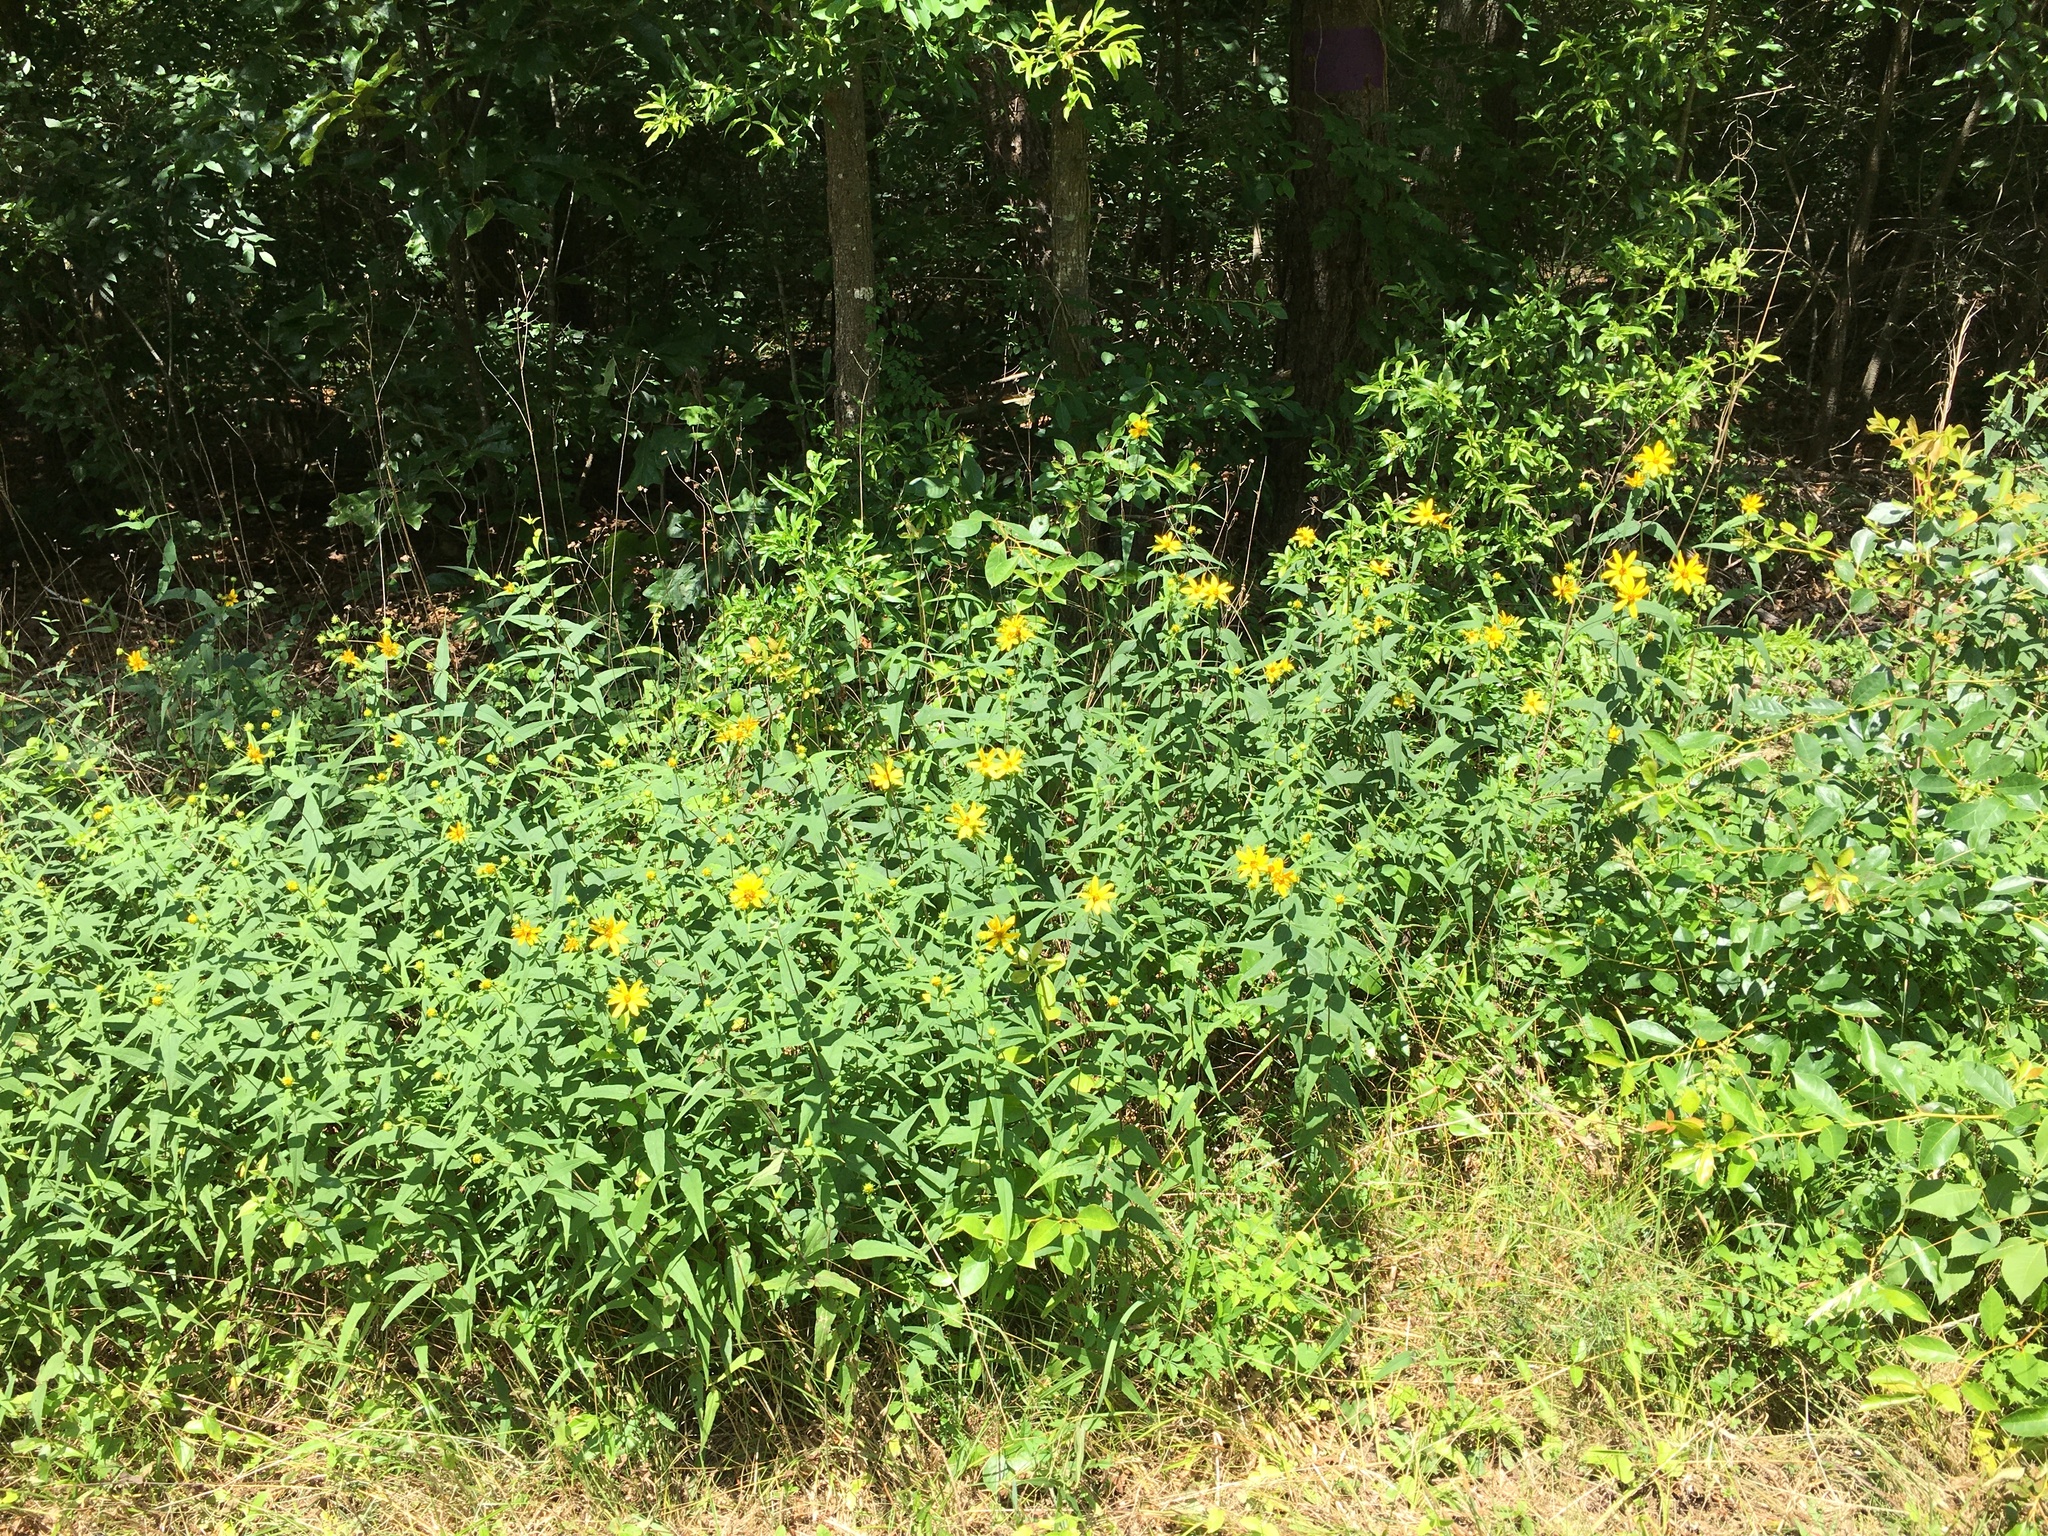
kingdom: Plantae
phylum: Tracheophyta
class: Magnoliopsida
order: Asterales
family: Asteraceae
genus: Helianthus
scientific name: Helianthus divaricatus
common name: Divergent sunflower
